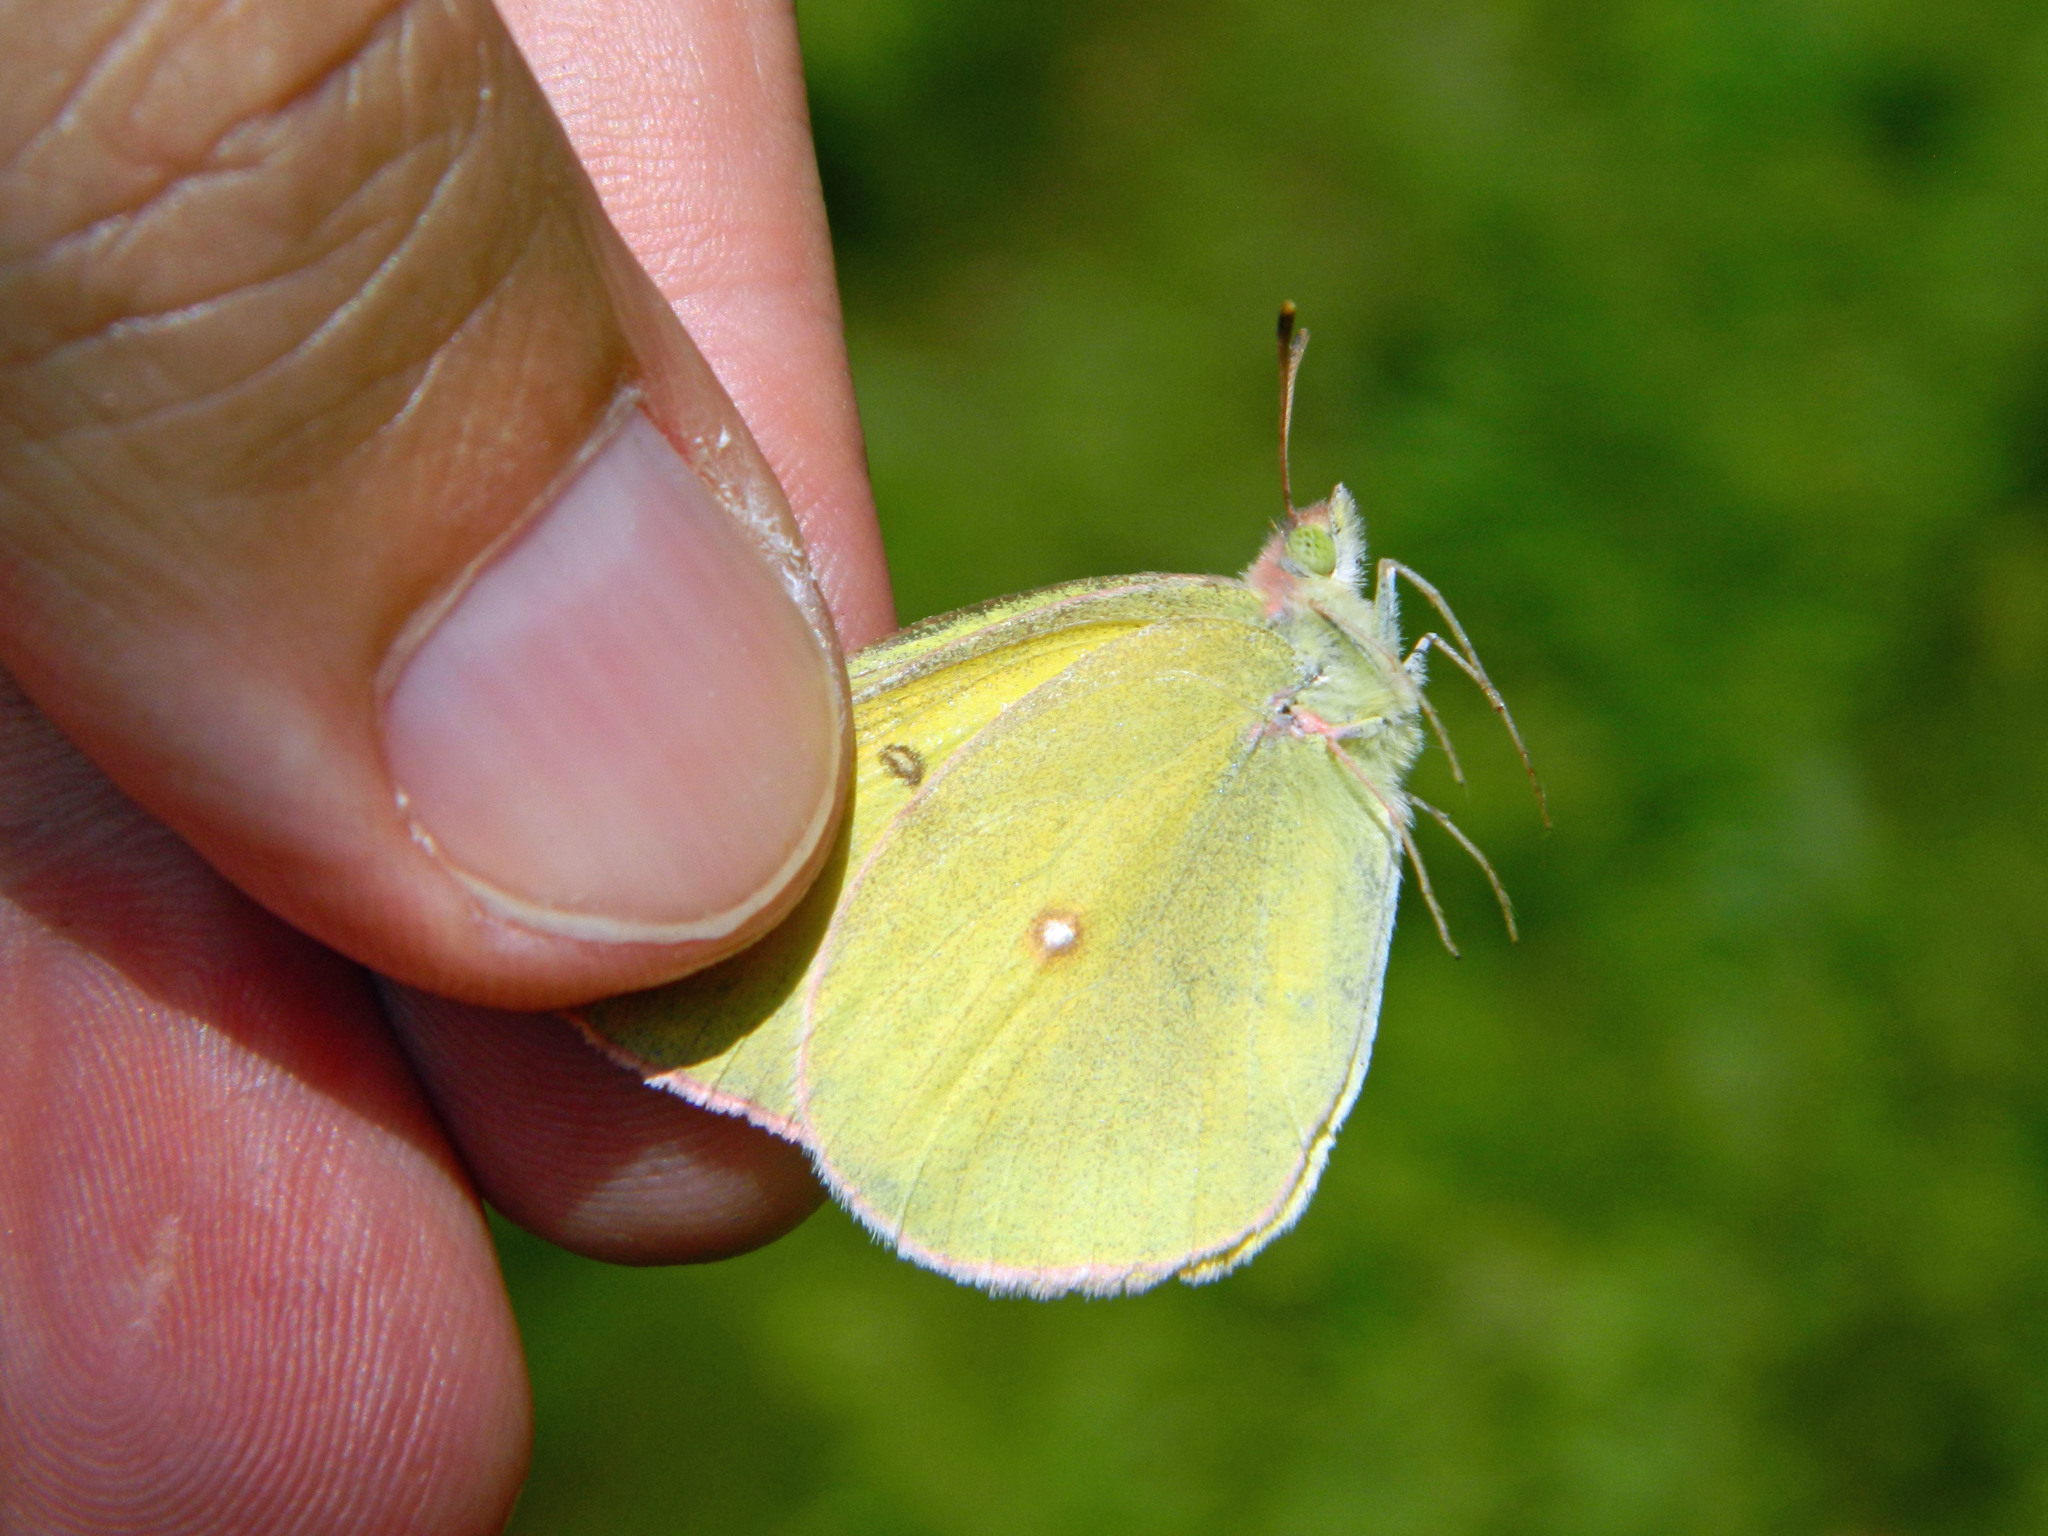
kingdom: Animalia
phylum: Arthropoda
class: Insecta
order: Lepidoptera
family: Pieridae
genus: Colias
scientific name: Colias interior
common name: Pink-edged sulphur
